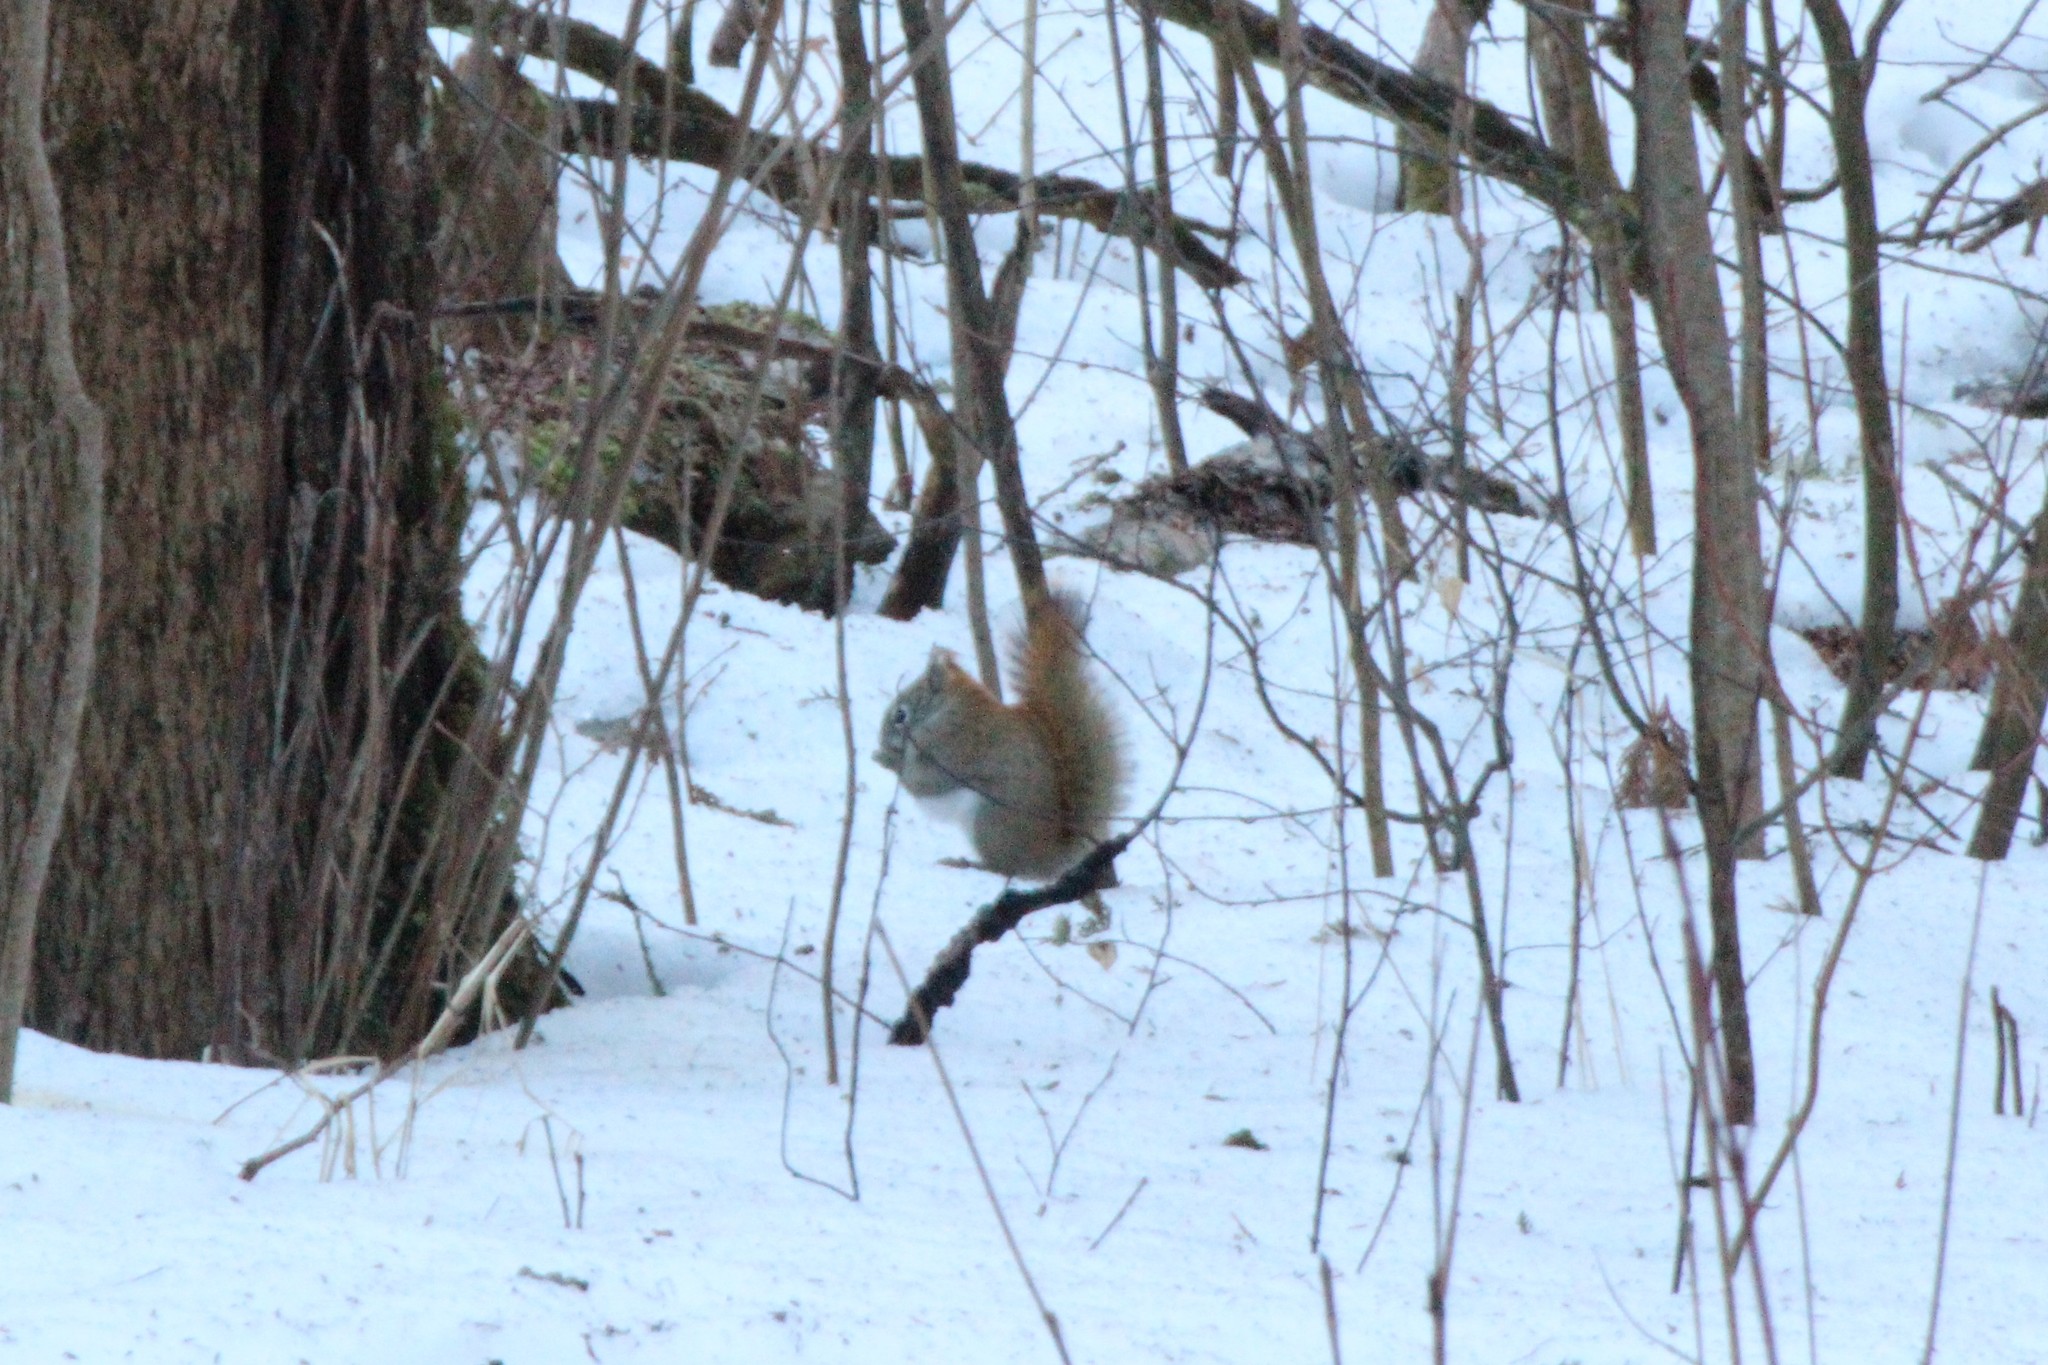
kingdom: Animalia
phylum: Chordata
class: Mammalia
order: Rodentia
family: Sciuridae
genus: Tamiasciurus
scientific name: Tamiasciurus hudsonicus
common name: Red squirrel
